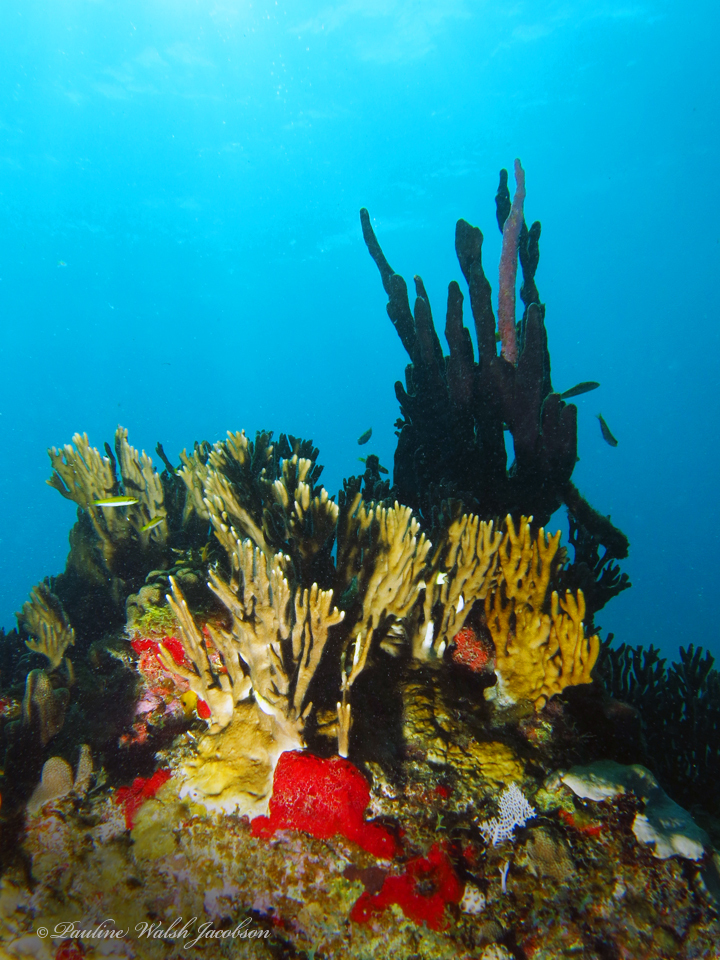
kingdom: Animalia
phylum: Cnidaria
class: Hydrozoa
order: Anthoathecata
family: Milleporidae
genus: Millepora
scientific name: Millepora alcicornis
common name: Branching fire coral
